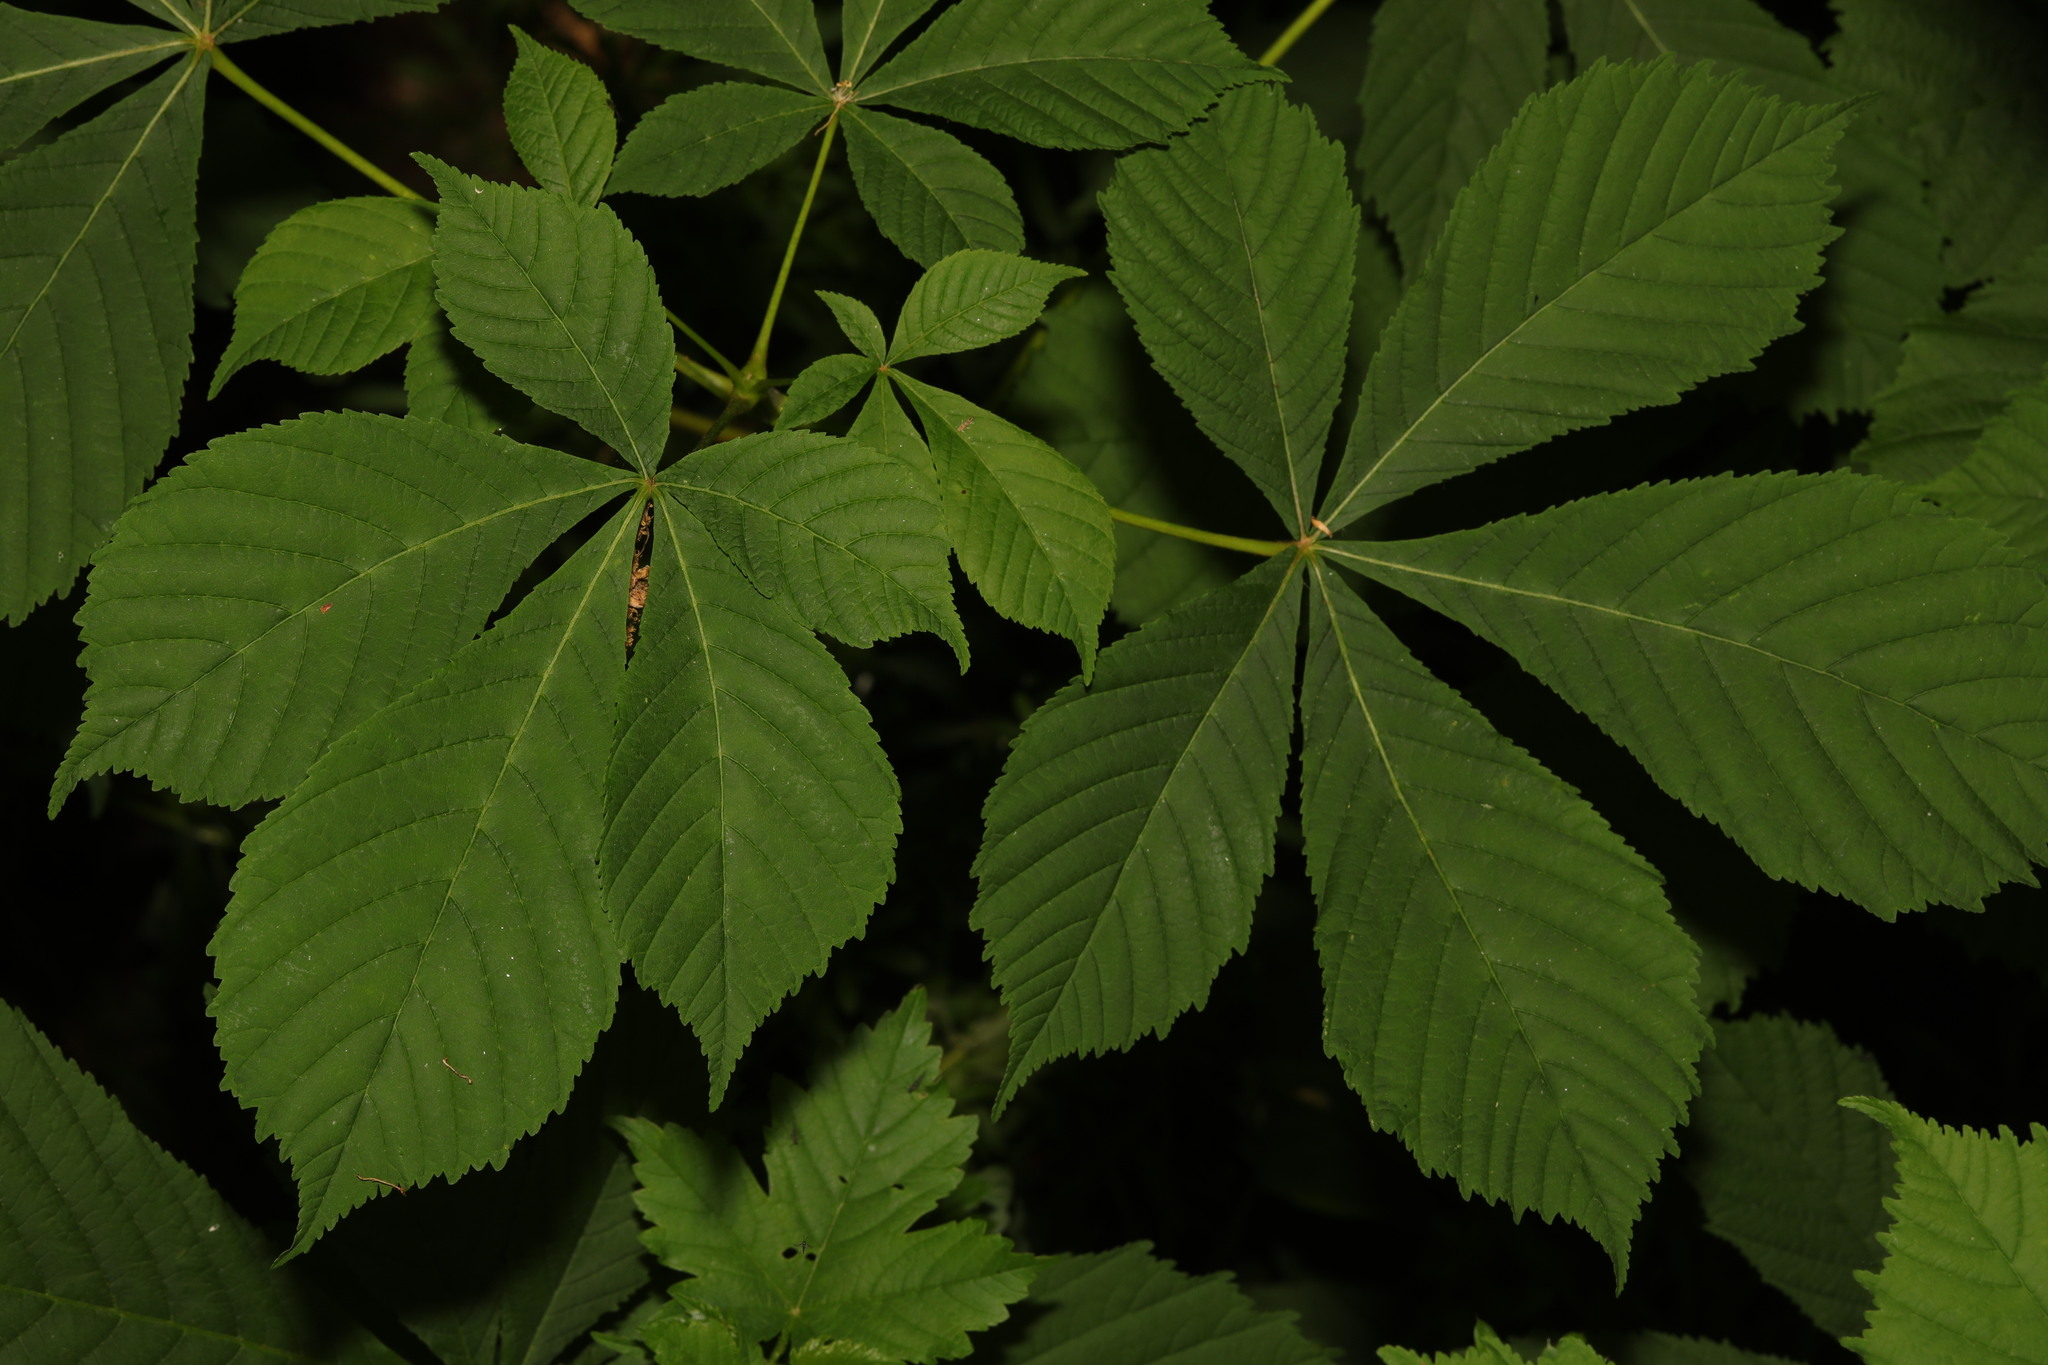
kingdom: Plantae
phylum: Tracheophyta
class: Magnoliopsida
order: Sapindales
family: Sapindaceae
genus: Aesculus
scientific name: Aesculus hippocastanum
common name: Horse-chestnut
